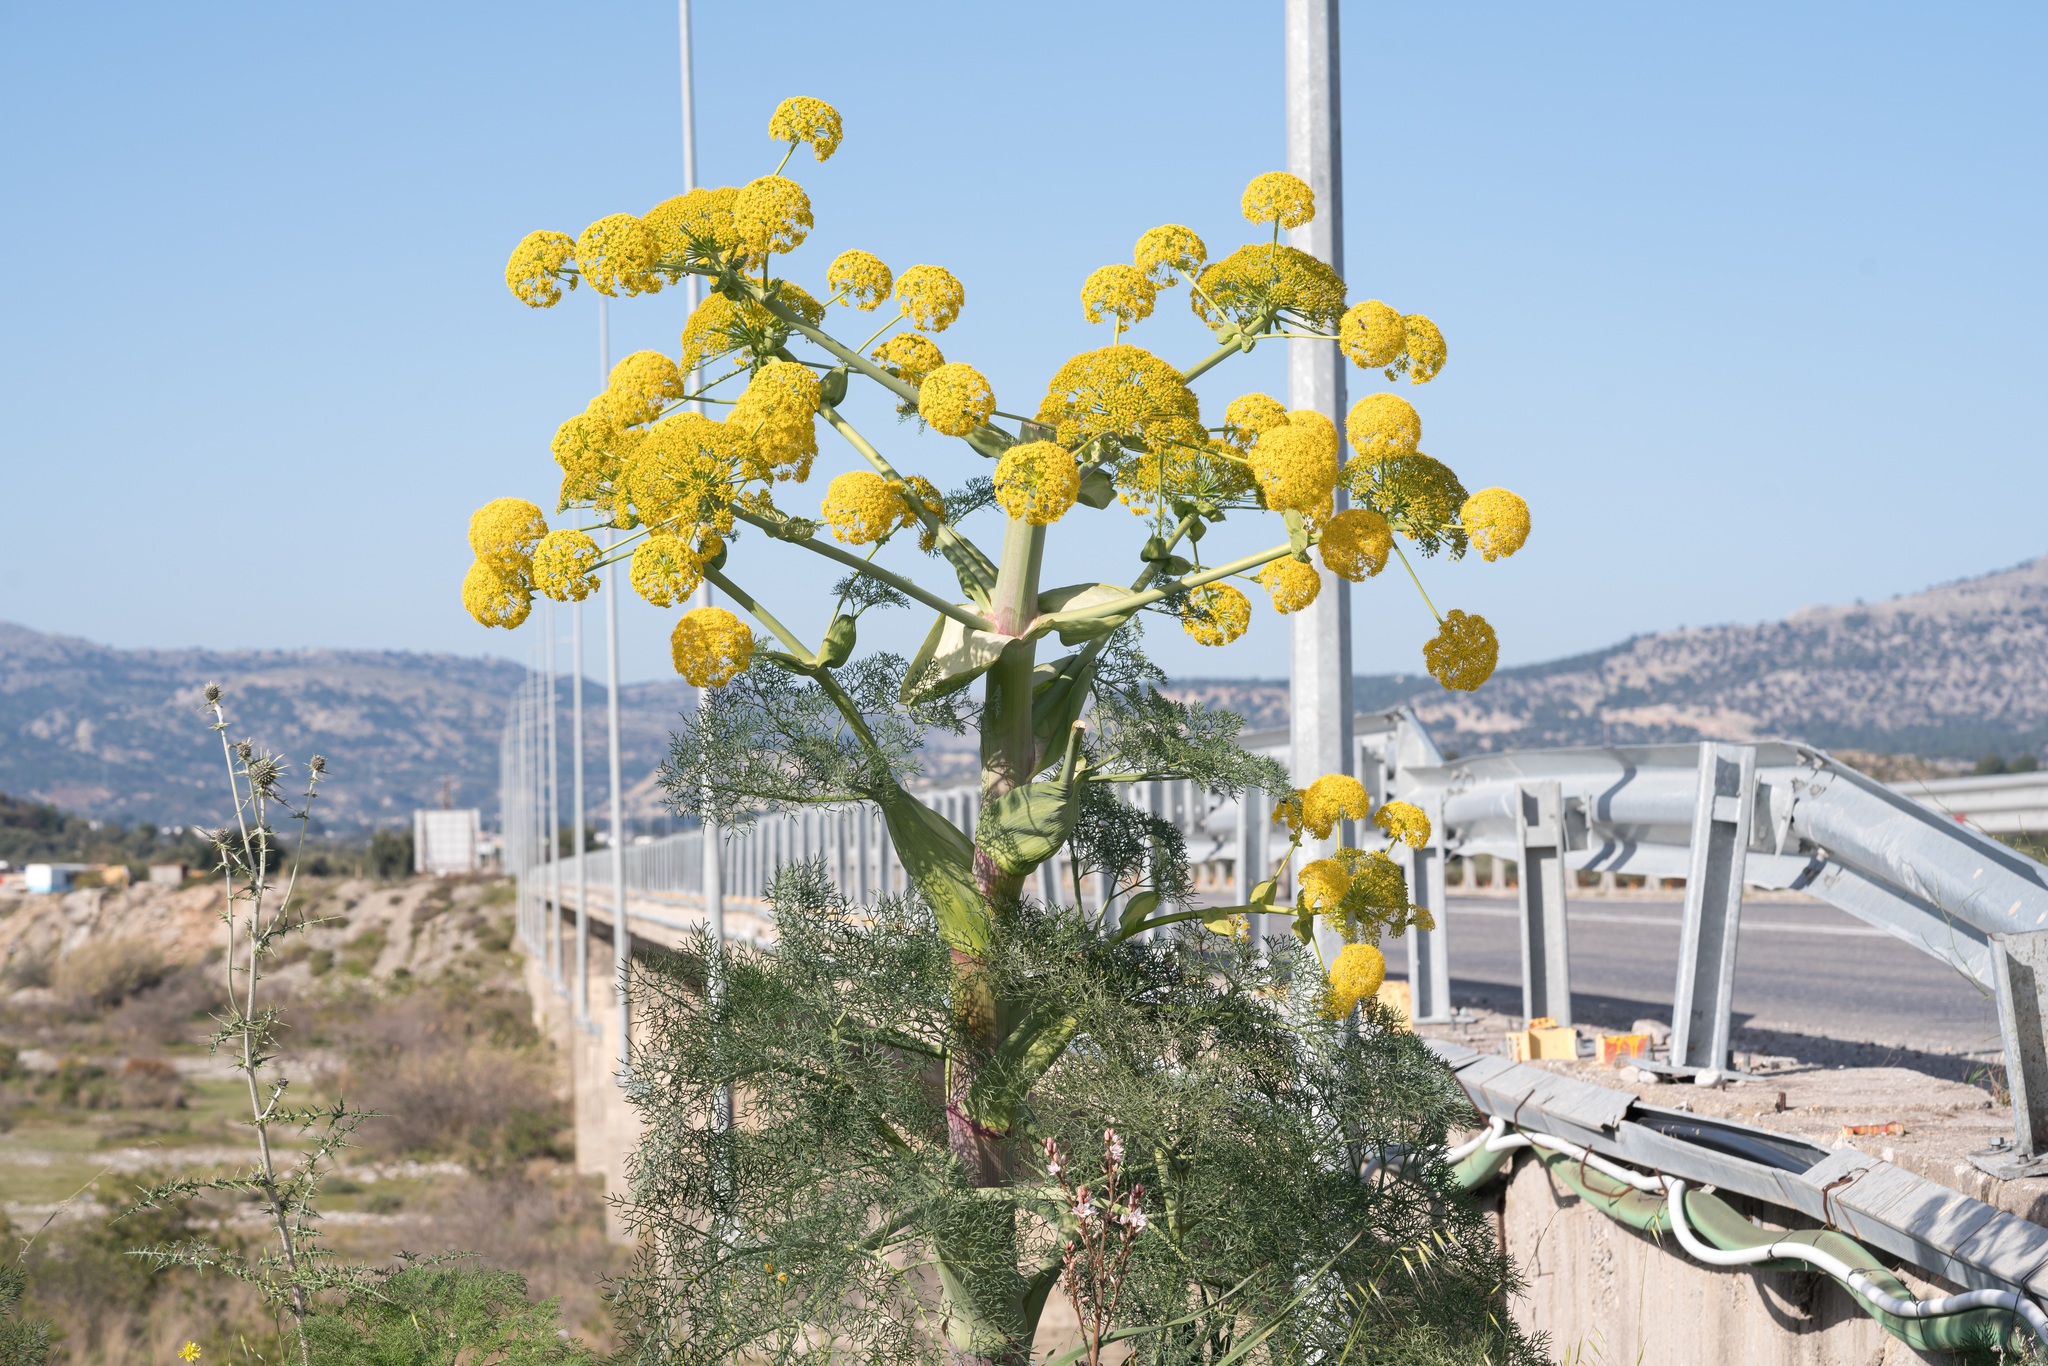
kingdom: Plantae
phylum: Tracheophyta
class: Magnoliopsida
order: Apiales
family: Apiaceae
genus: Ferula
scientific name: Ferula glauca
